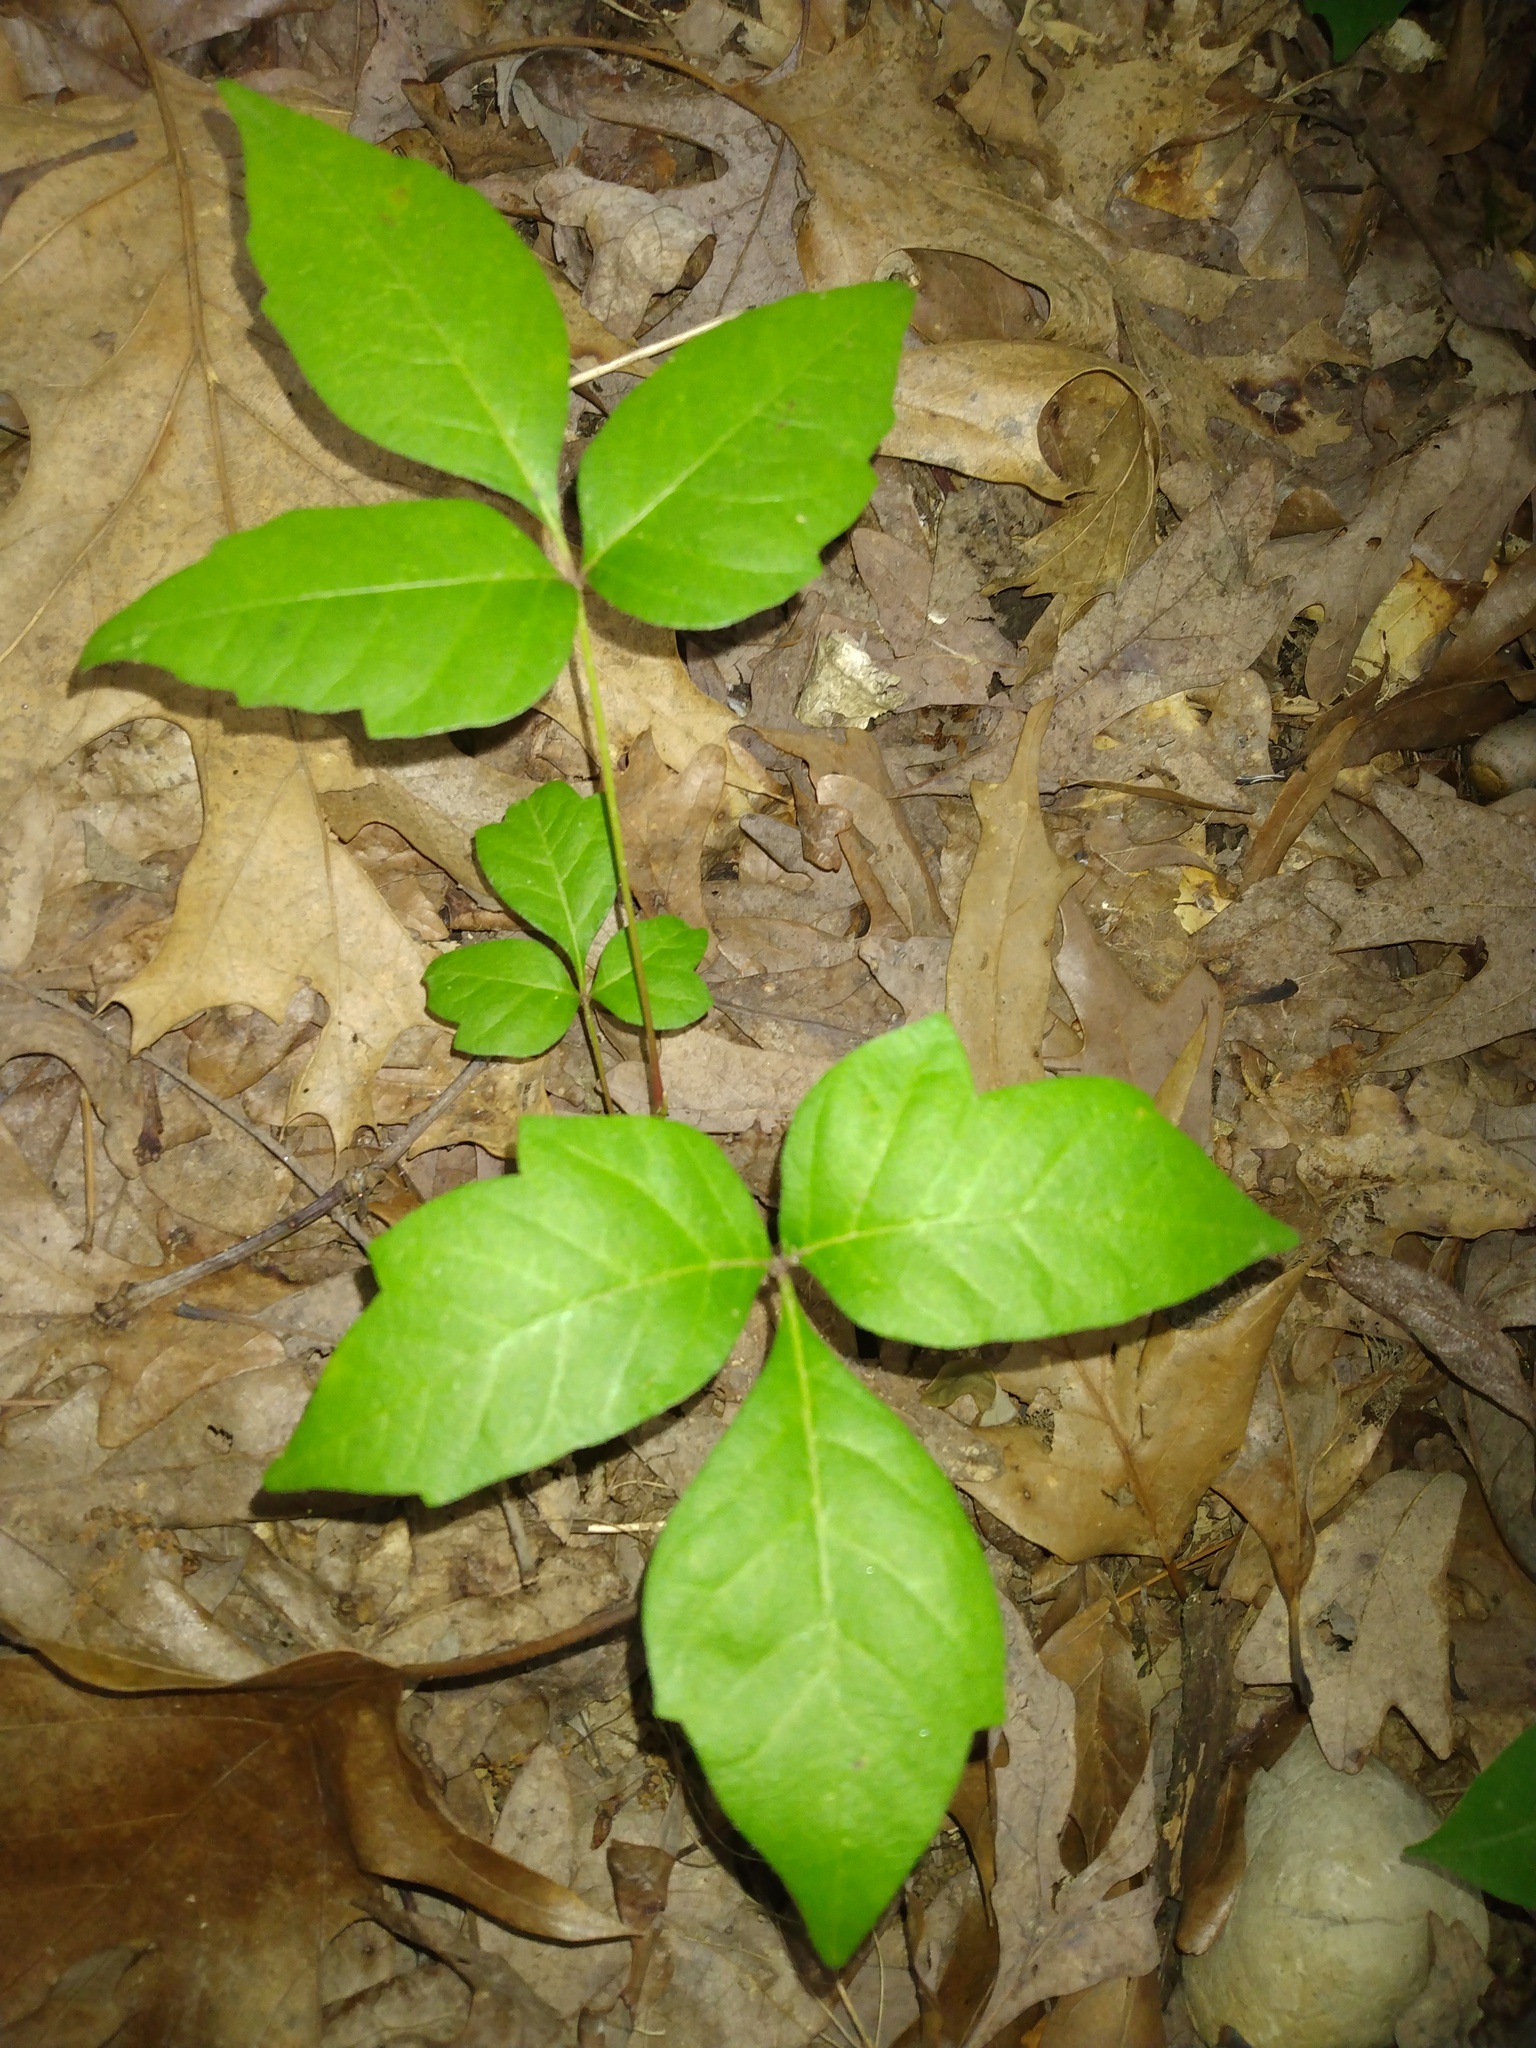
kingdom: Plantae
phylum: Tracheophyta
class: Magnoliopsida
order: Sapindales
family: Anacardiaceae
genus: Toxicodendron
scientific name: Toxicodendron radicans
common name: Poison ivy
